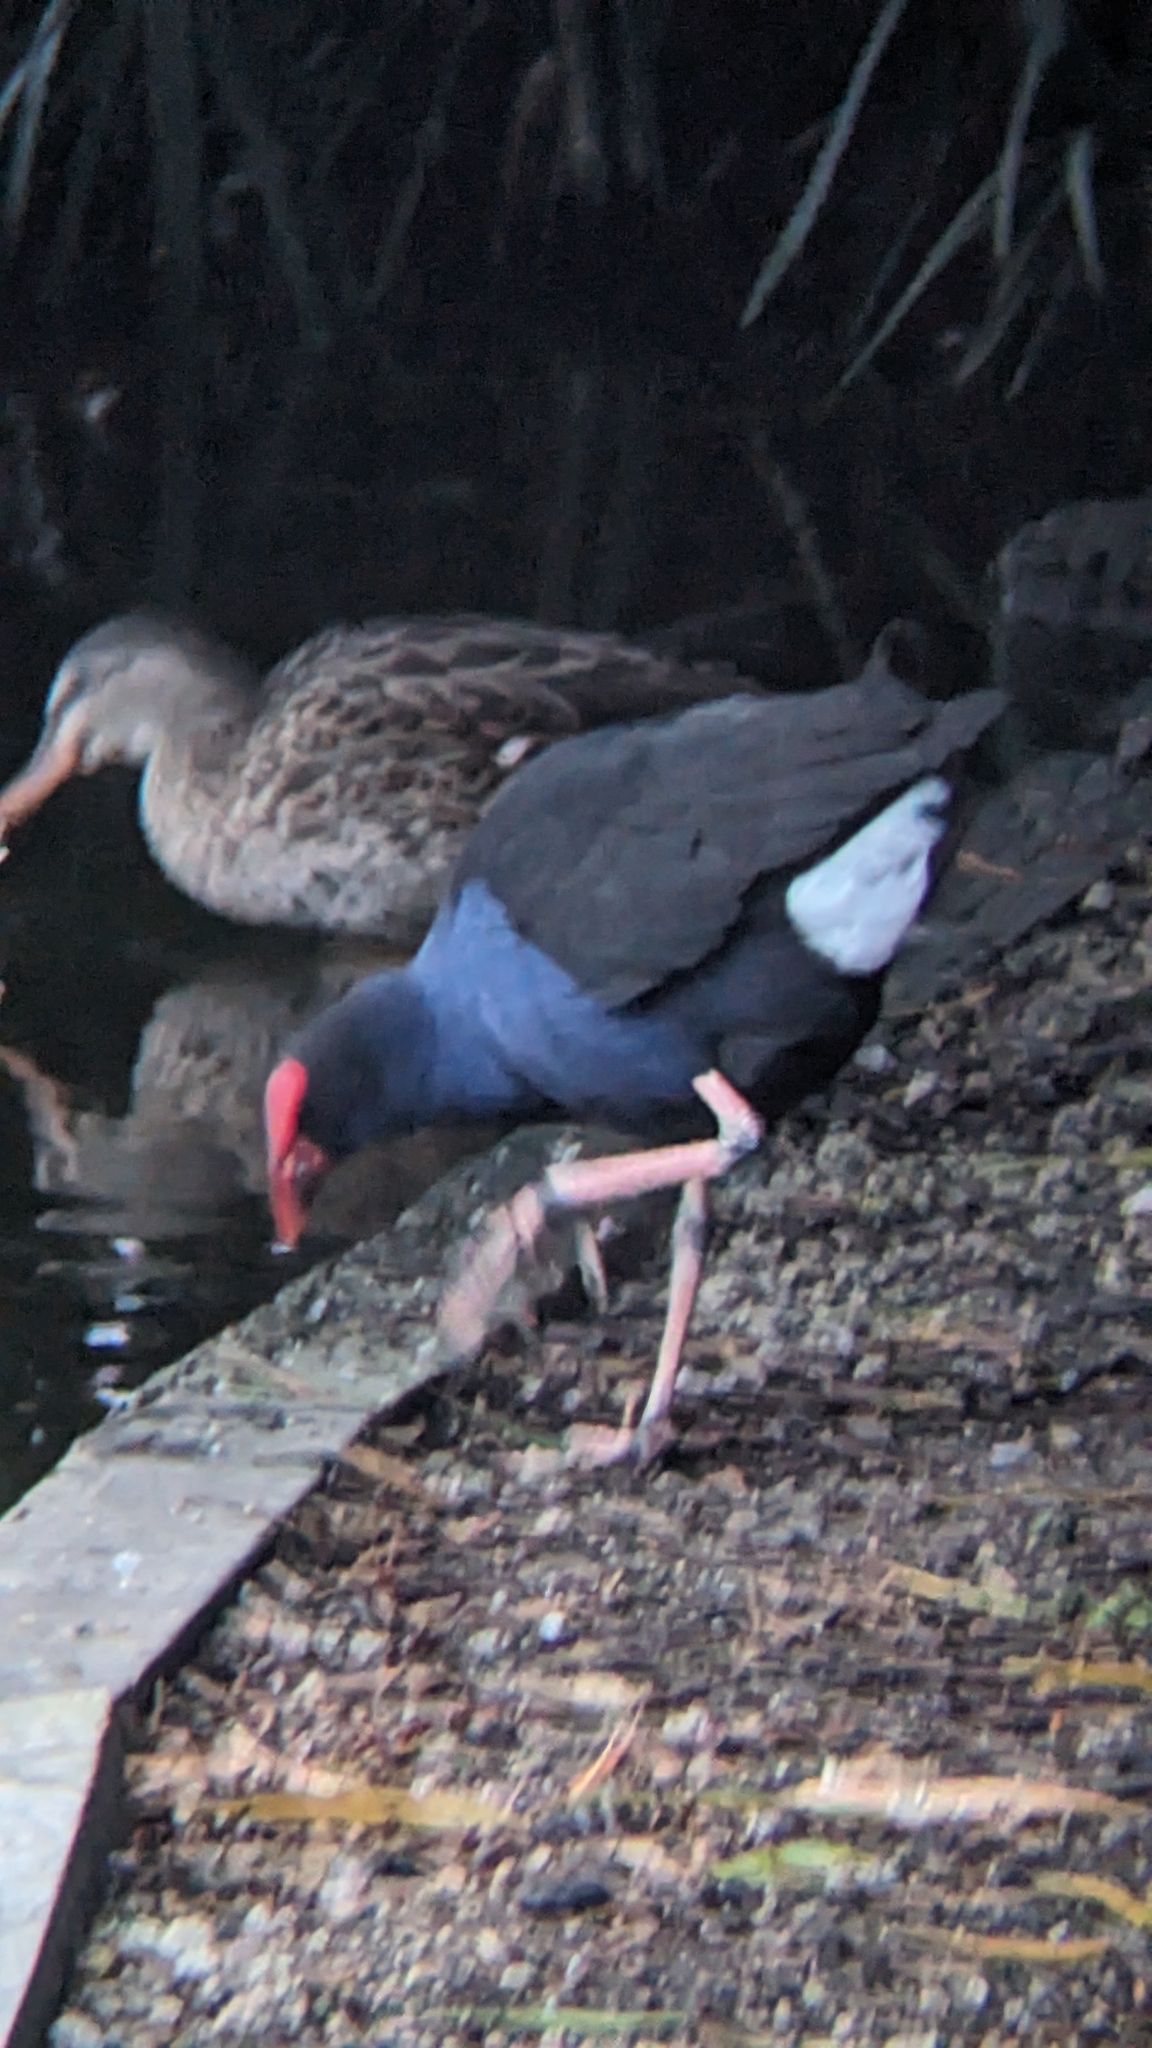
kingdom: Animalia
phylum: Chordata
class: Aves
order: Gruiformes
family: Rallidae
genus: Porphyrio
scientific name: Porphyrio melanotus
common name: Australasian swamphen
